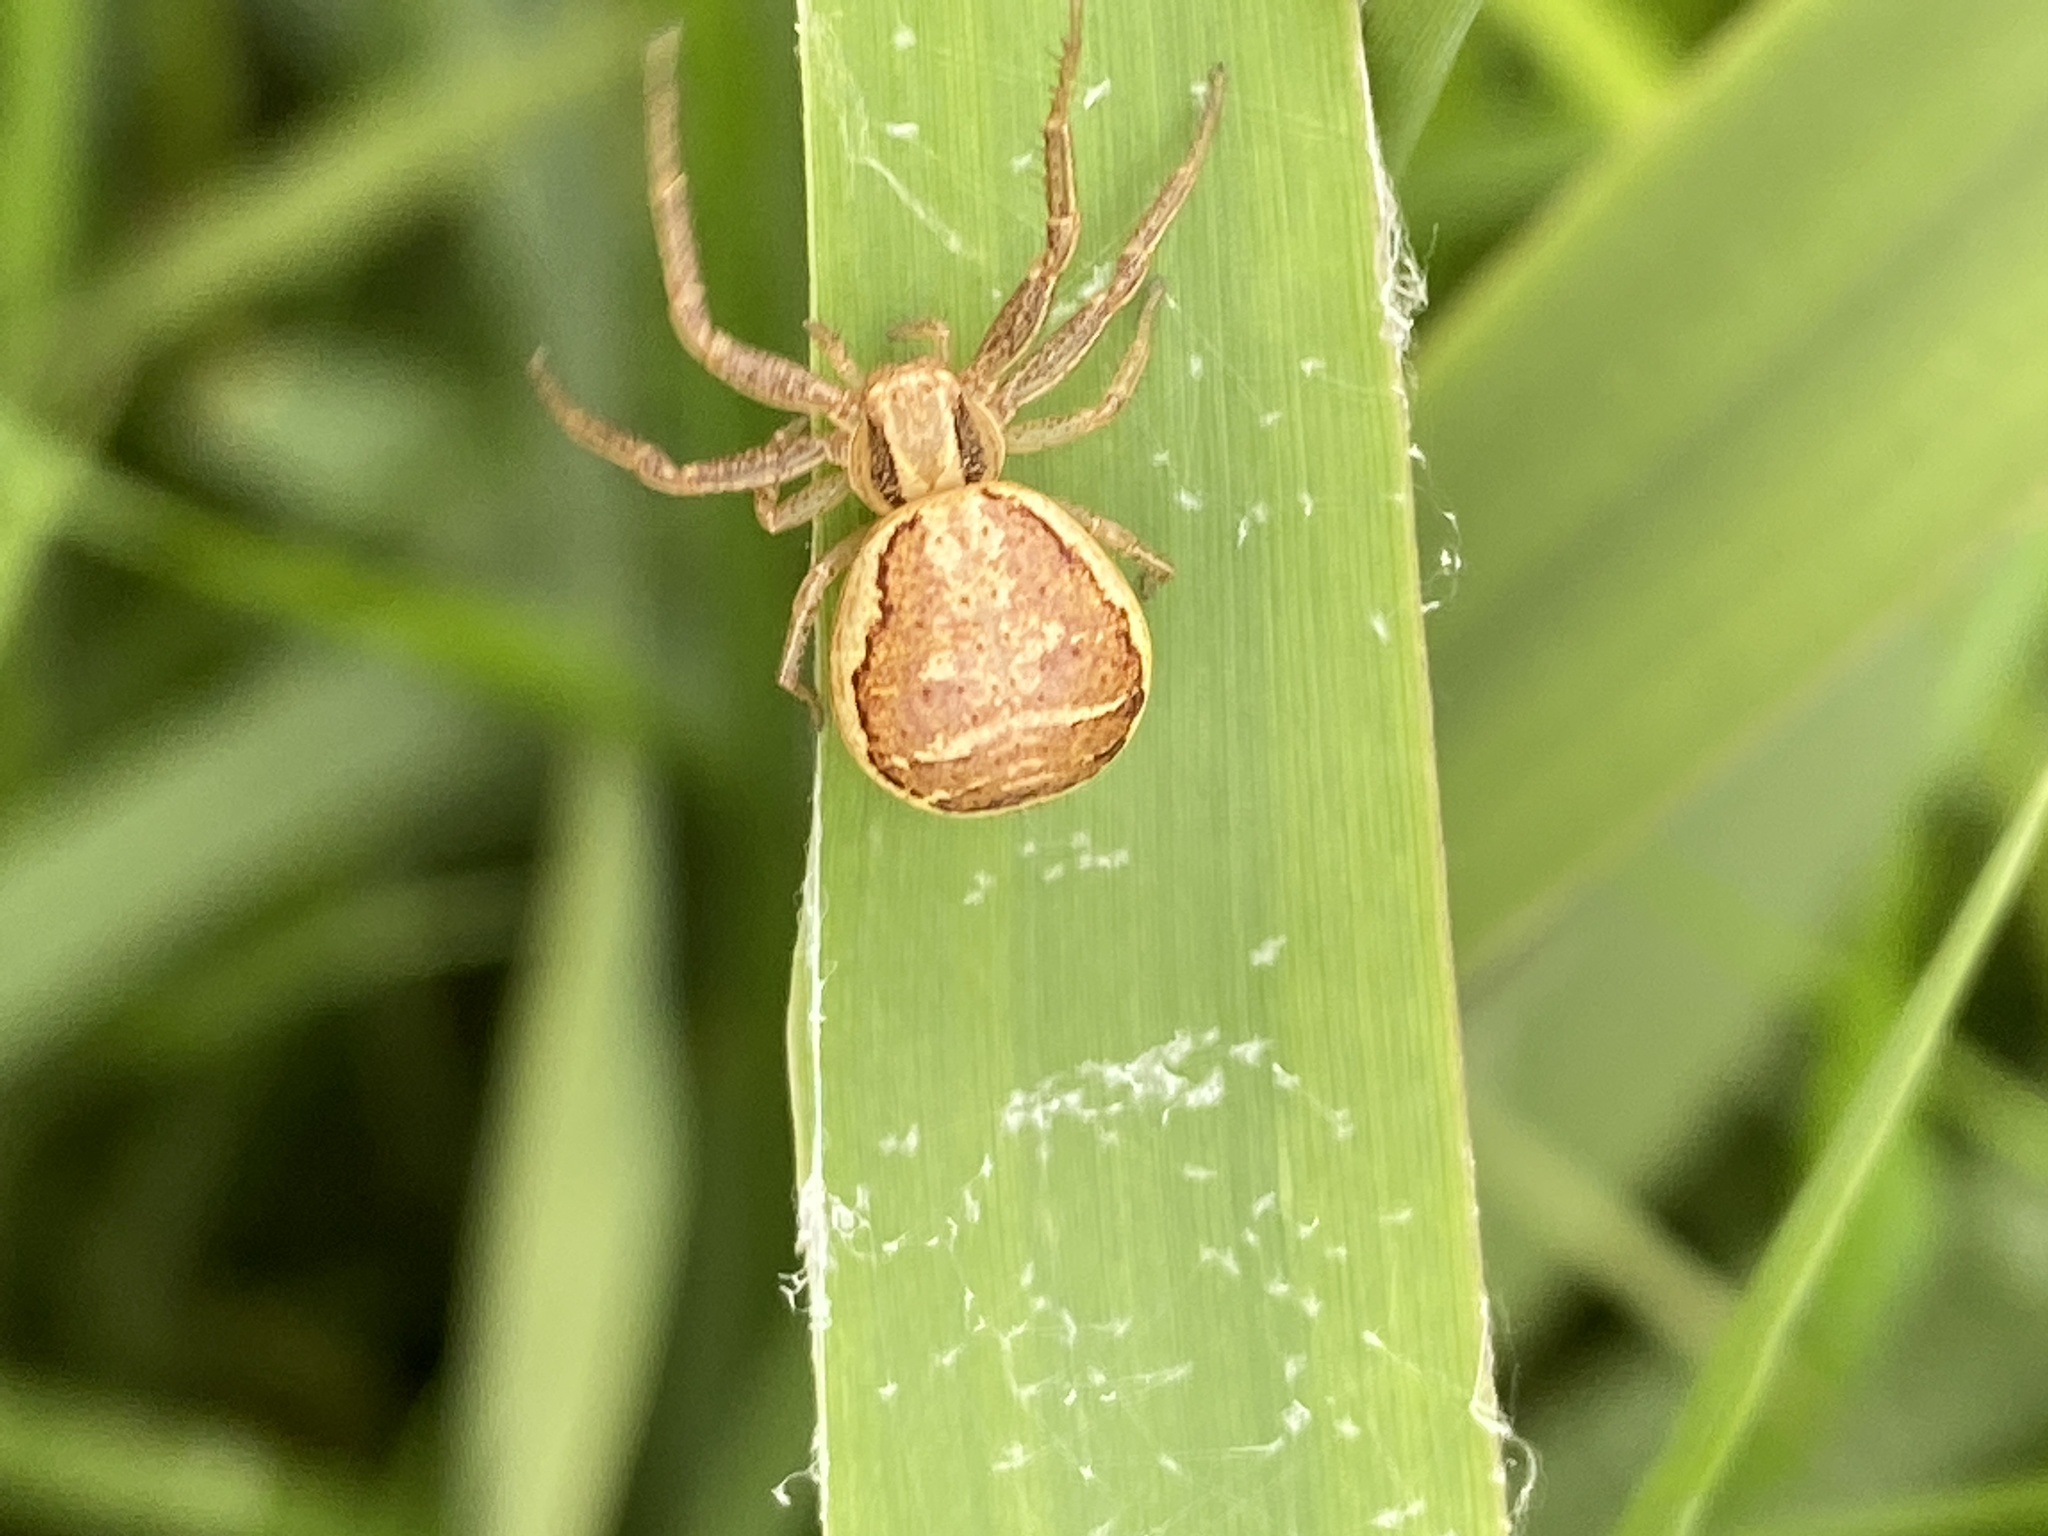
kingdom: Animalia
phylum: Arthropoda
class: Arachnida
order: Araneae
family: Thomisidae
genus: Xysticus
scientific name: Xysticus ulmi
